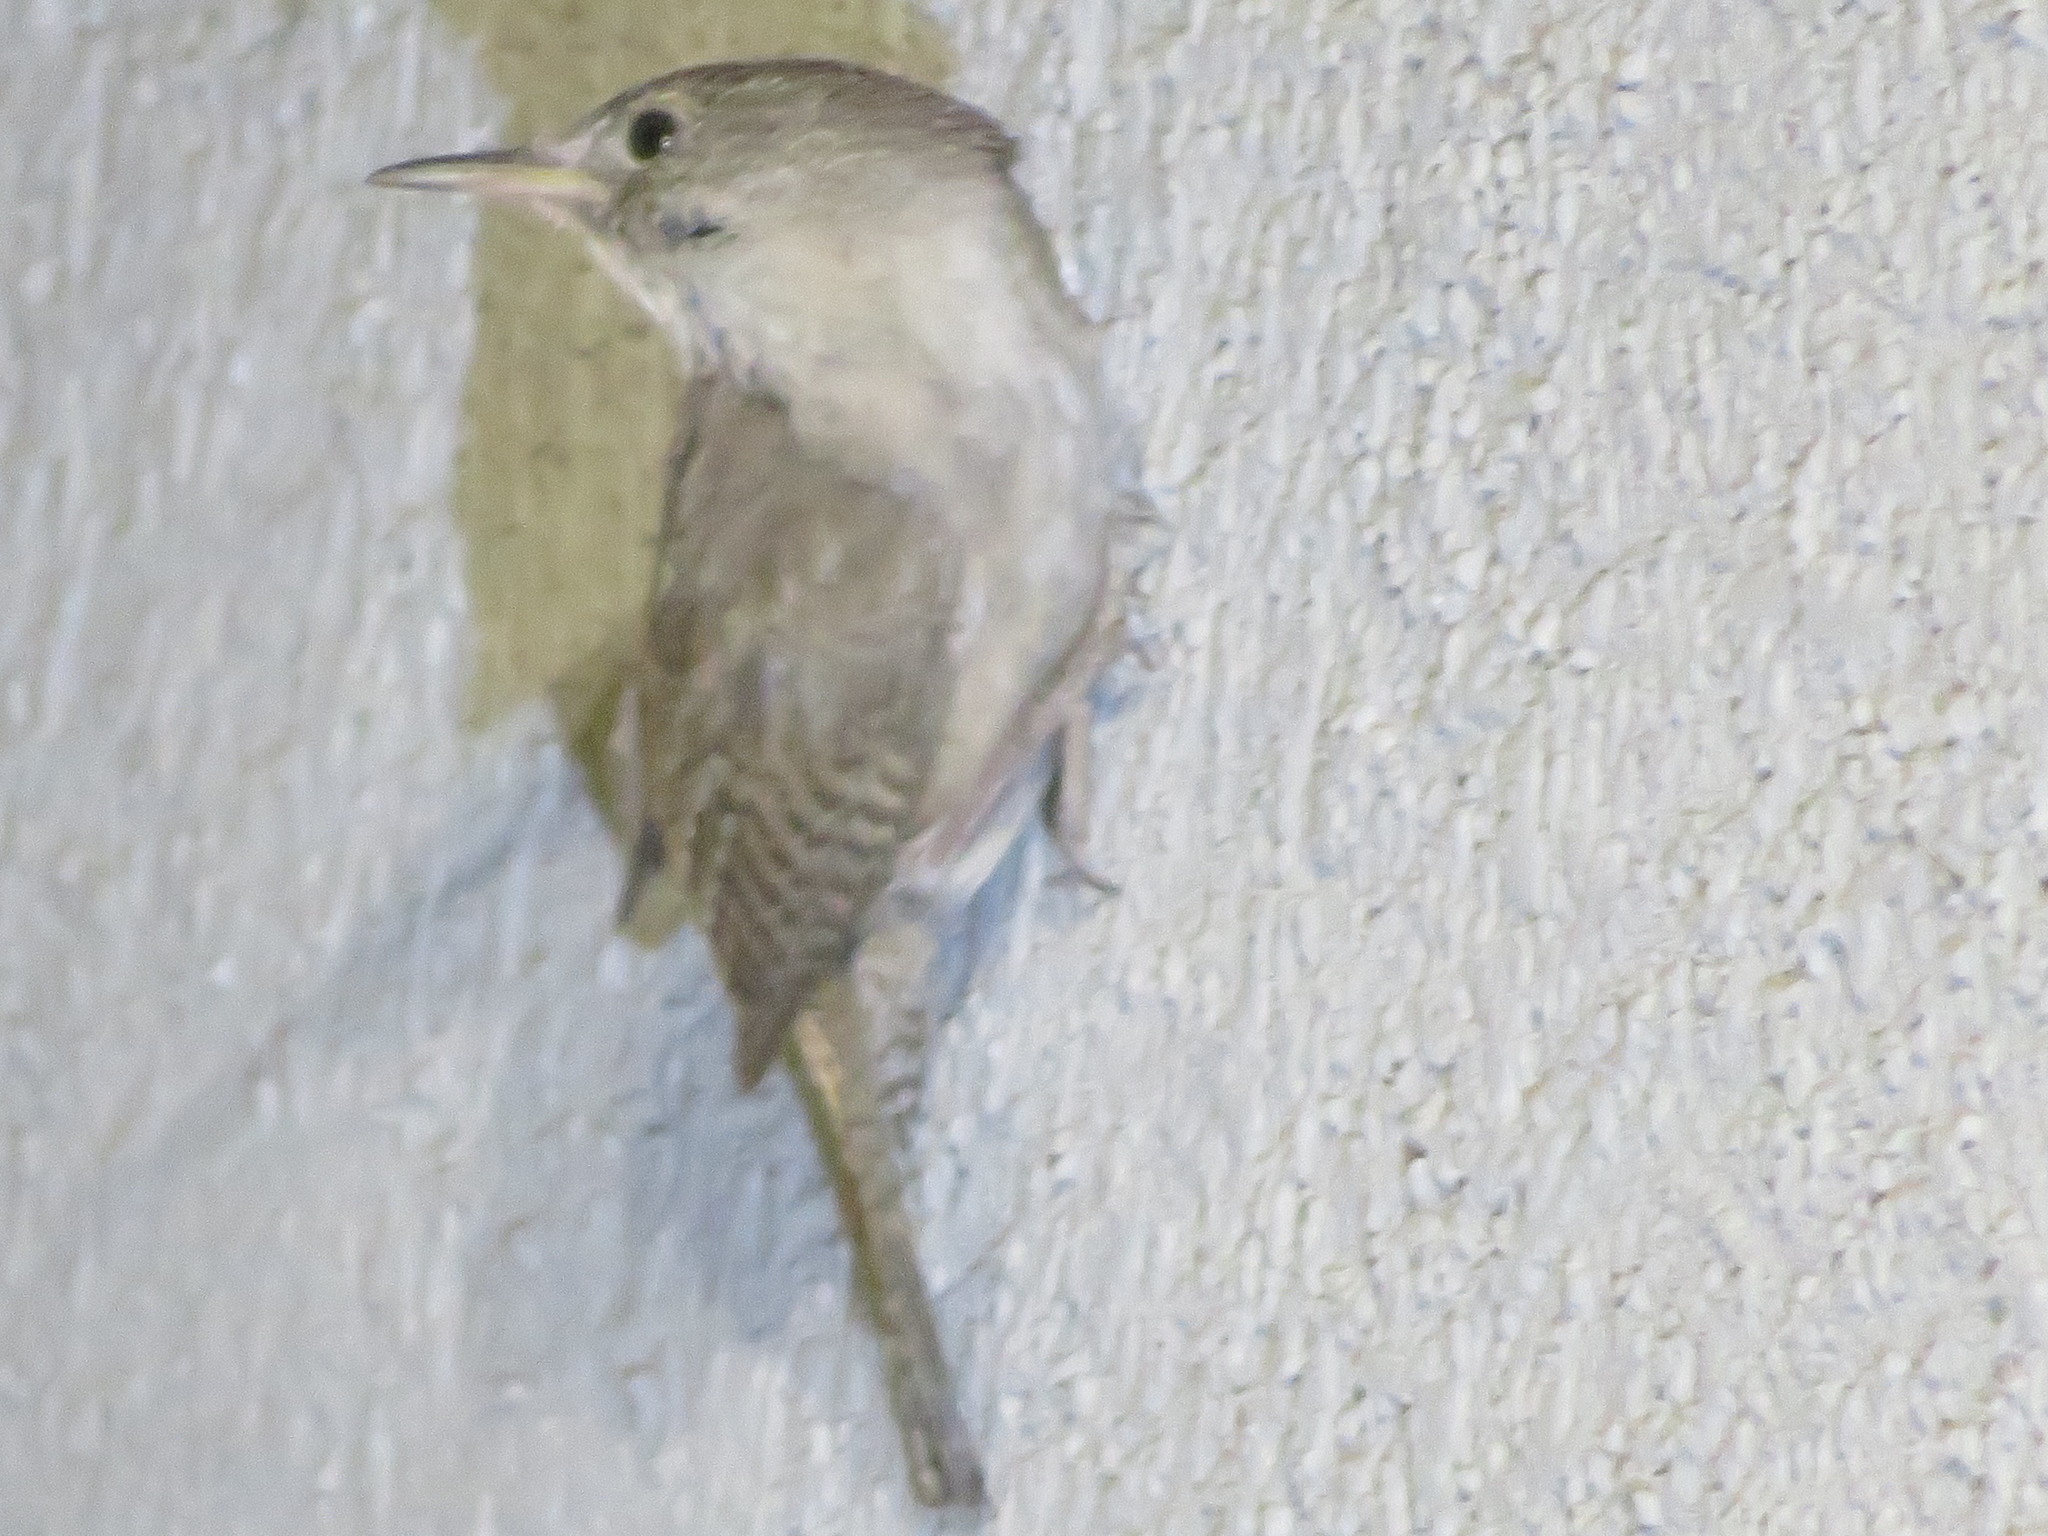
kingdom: Animalia
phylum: Chordata
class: Aves
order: Passeriformes
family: Troglodytidae
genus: Troglodytes
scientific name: Troglodytes aedon
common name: House wren
